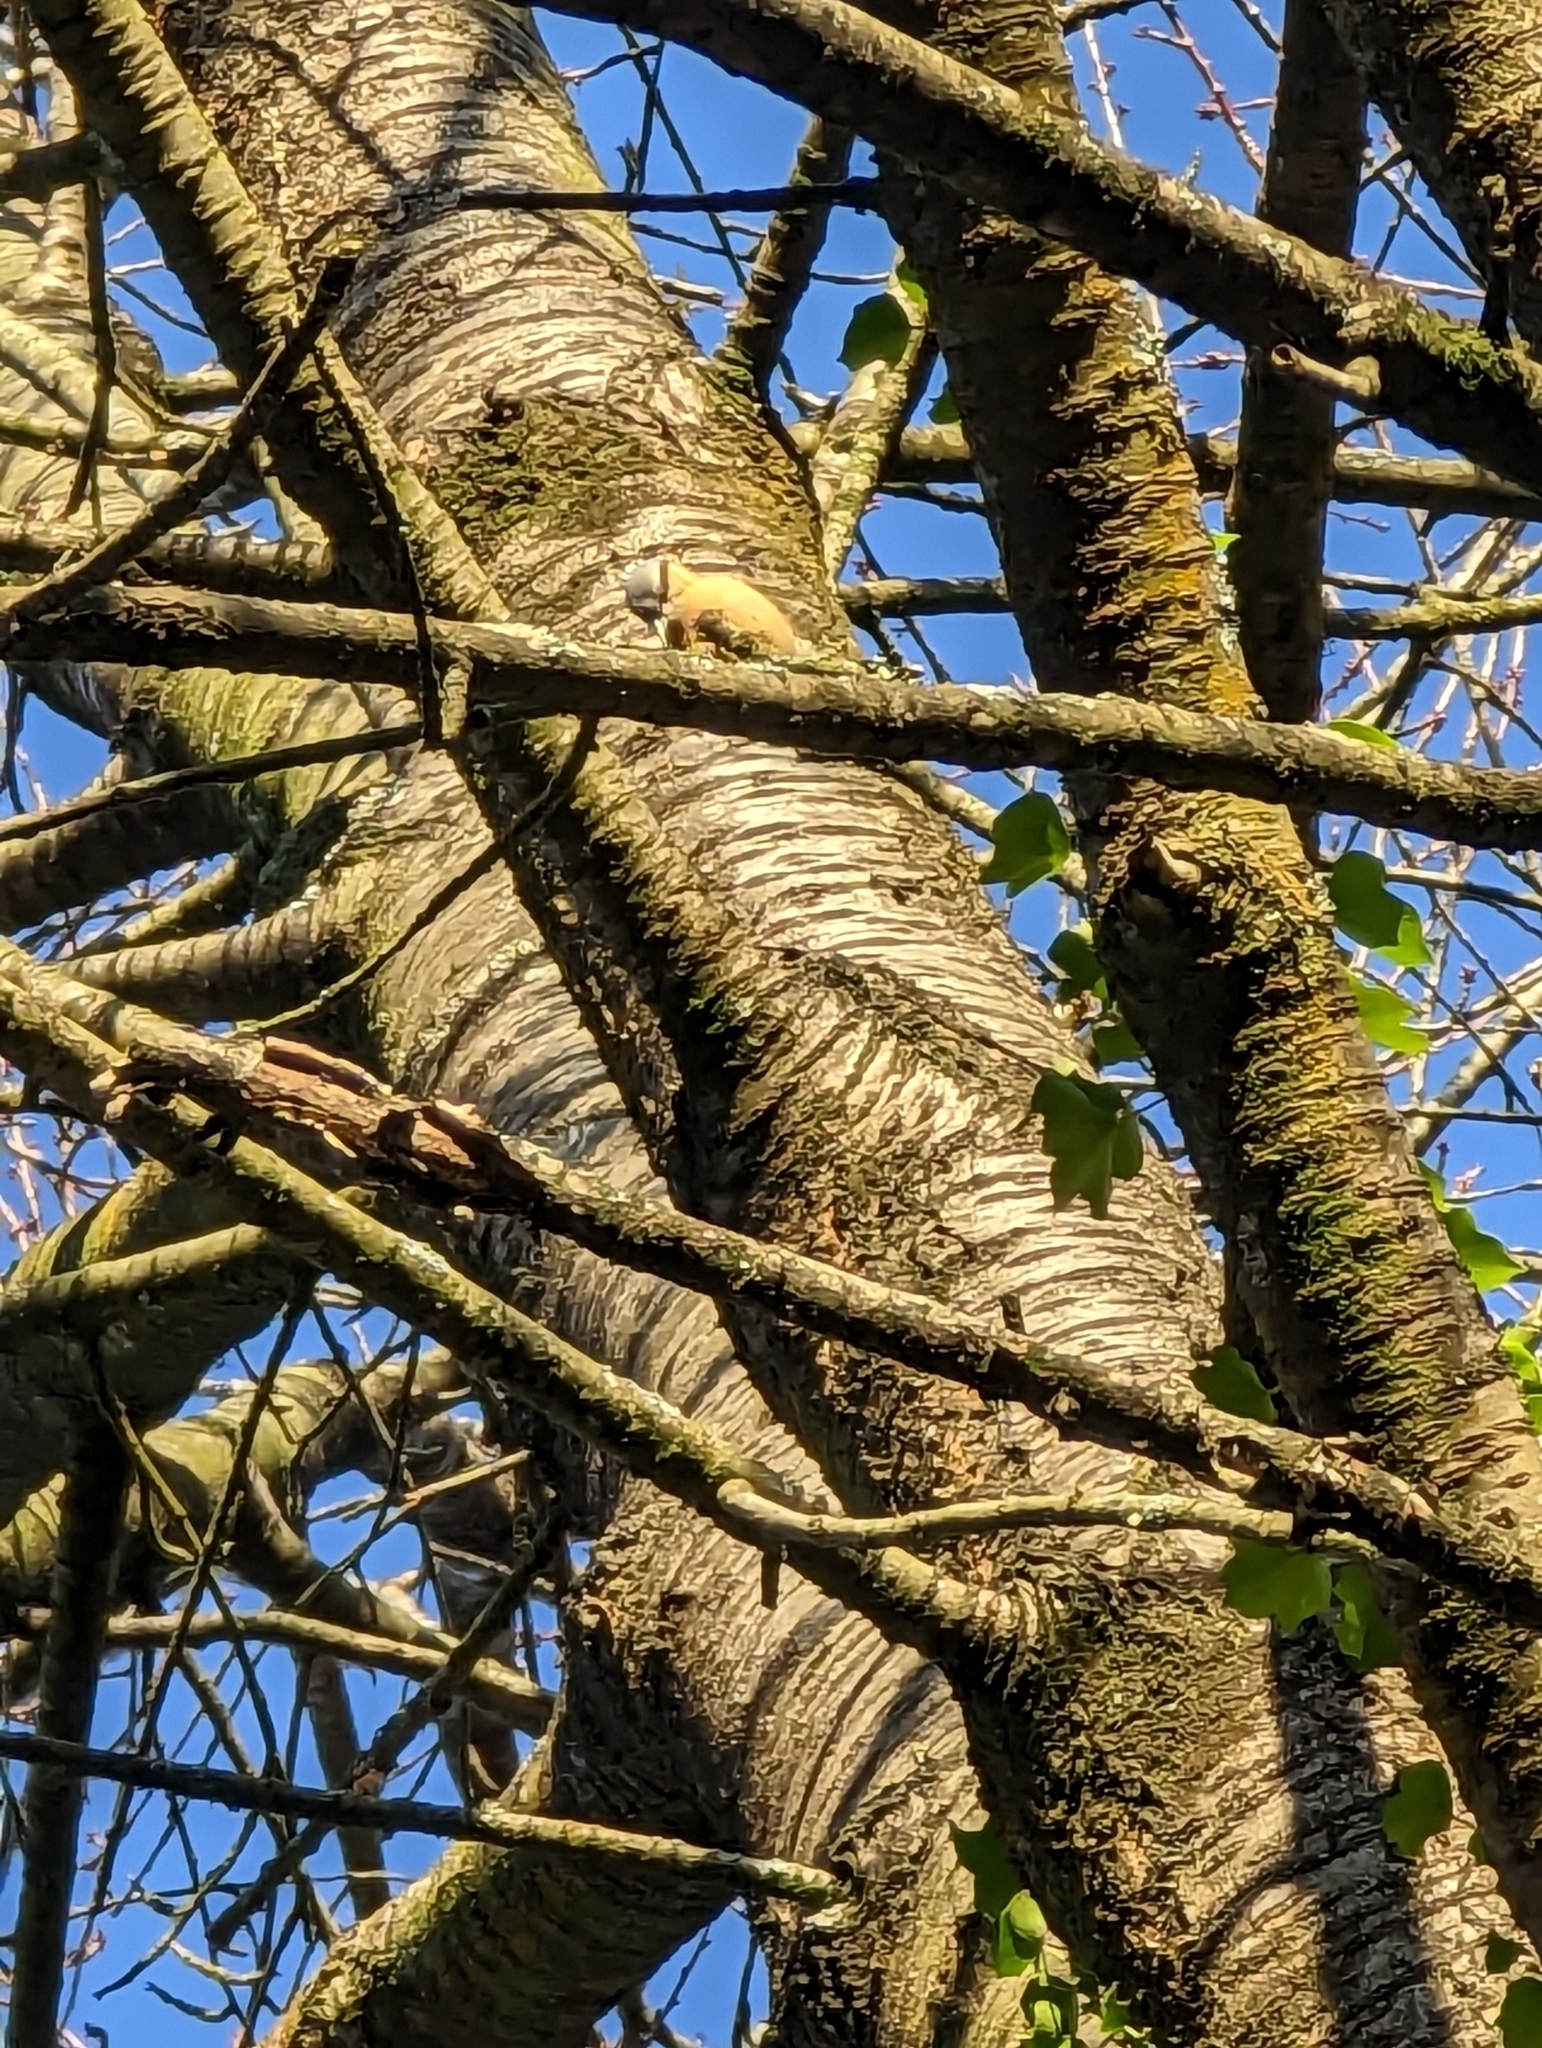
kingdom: Animalia
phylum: Chordata
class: Aves
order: Passeriformes
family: Sittidae
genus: Sitta
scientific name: Sitta europaea
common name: Eurasian nuthatch
